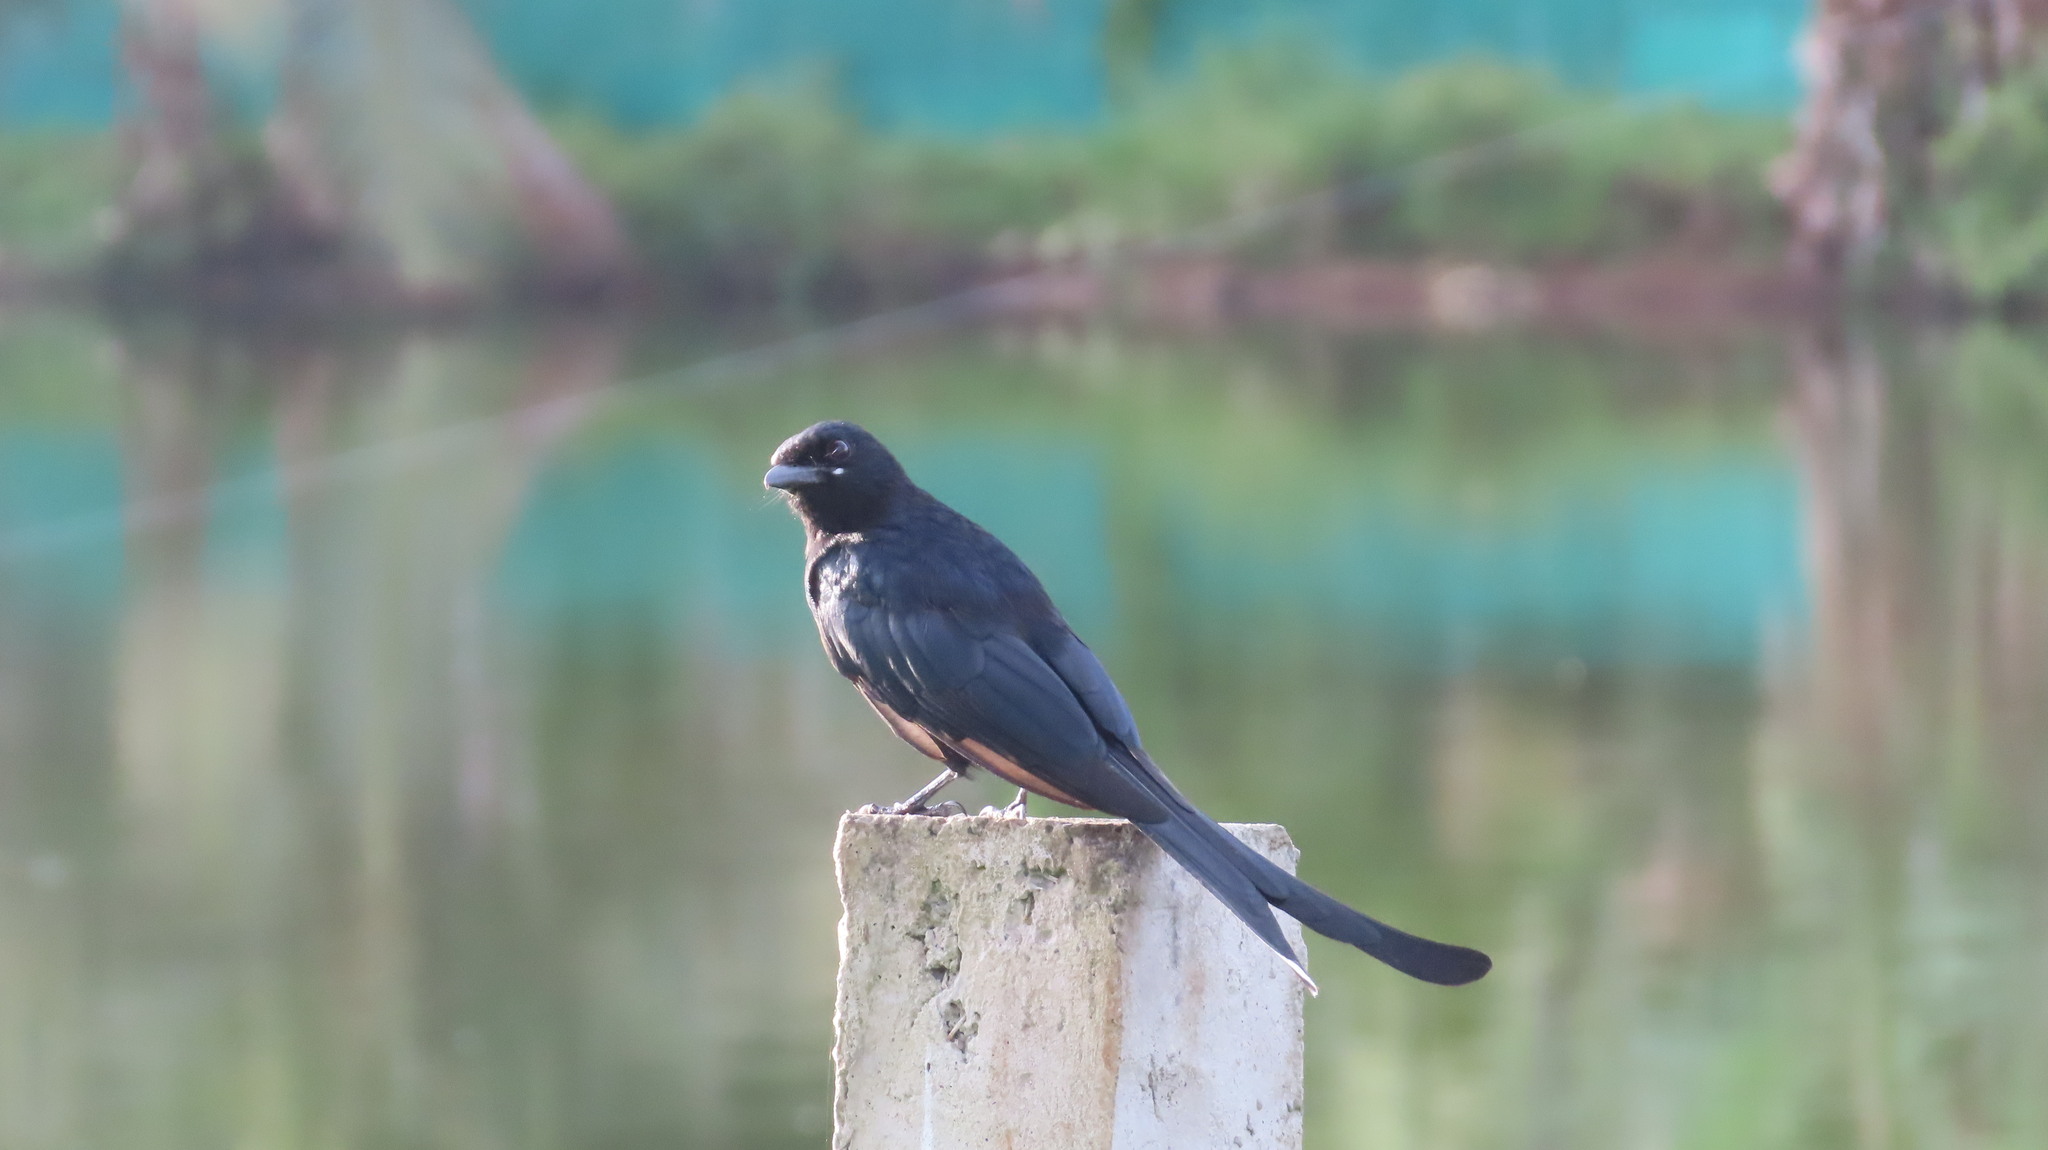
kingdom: Animalia
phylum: Chordata
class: Aves
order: Passeriformes
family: Dicruridae
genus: Dicrurus
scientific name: Dicrurus macrocercus
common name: Black drongo
